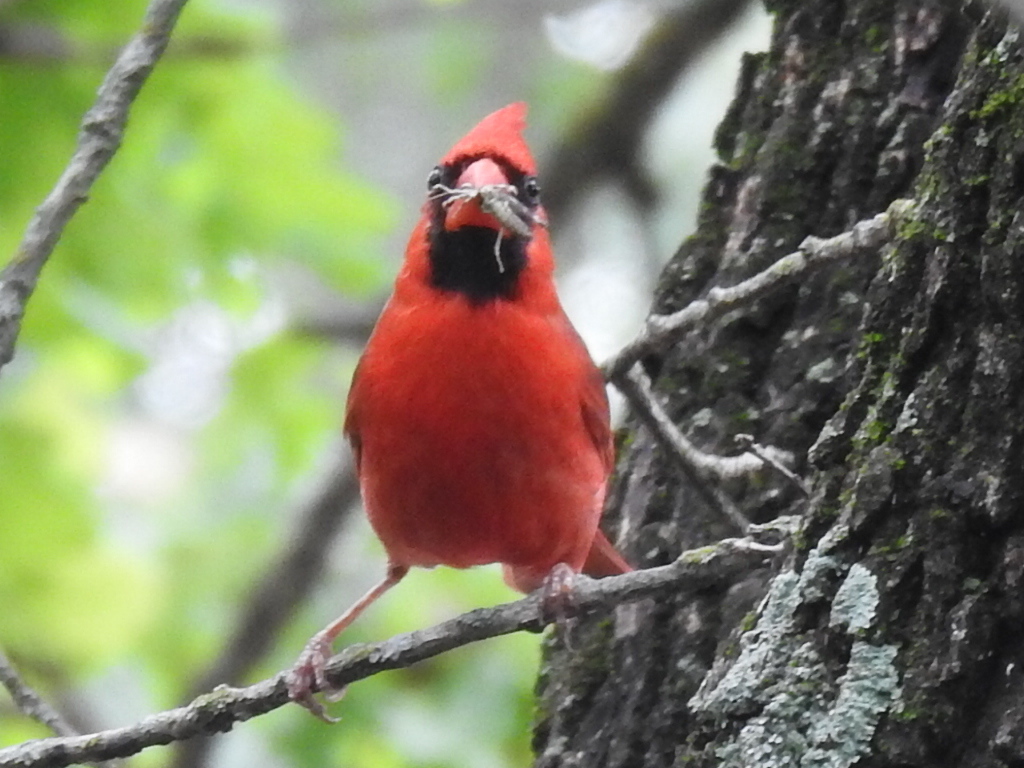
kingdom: Animalia
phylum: Chordata
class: Aves
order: Passeriformes
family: Cardinalidae
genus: Cardinalis
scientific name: Cardinalis cardinalis
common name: Northern cardinal
